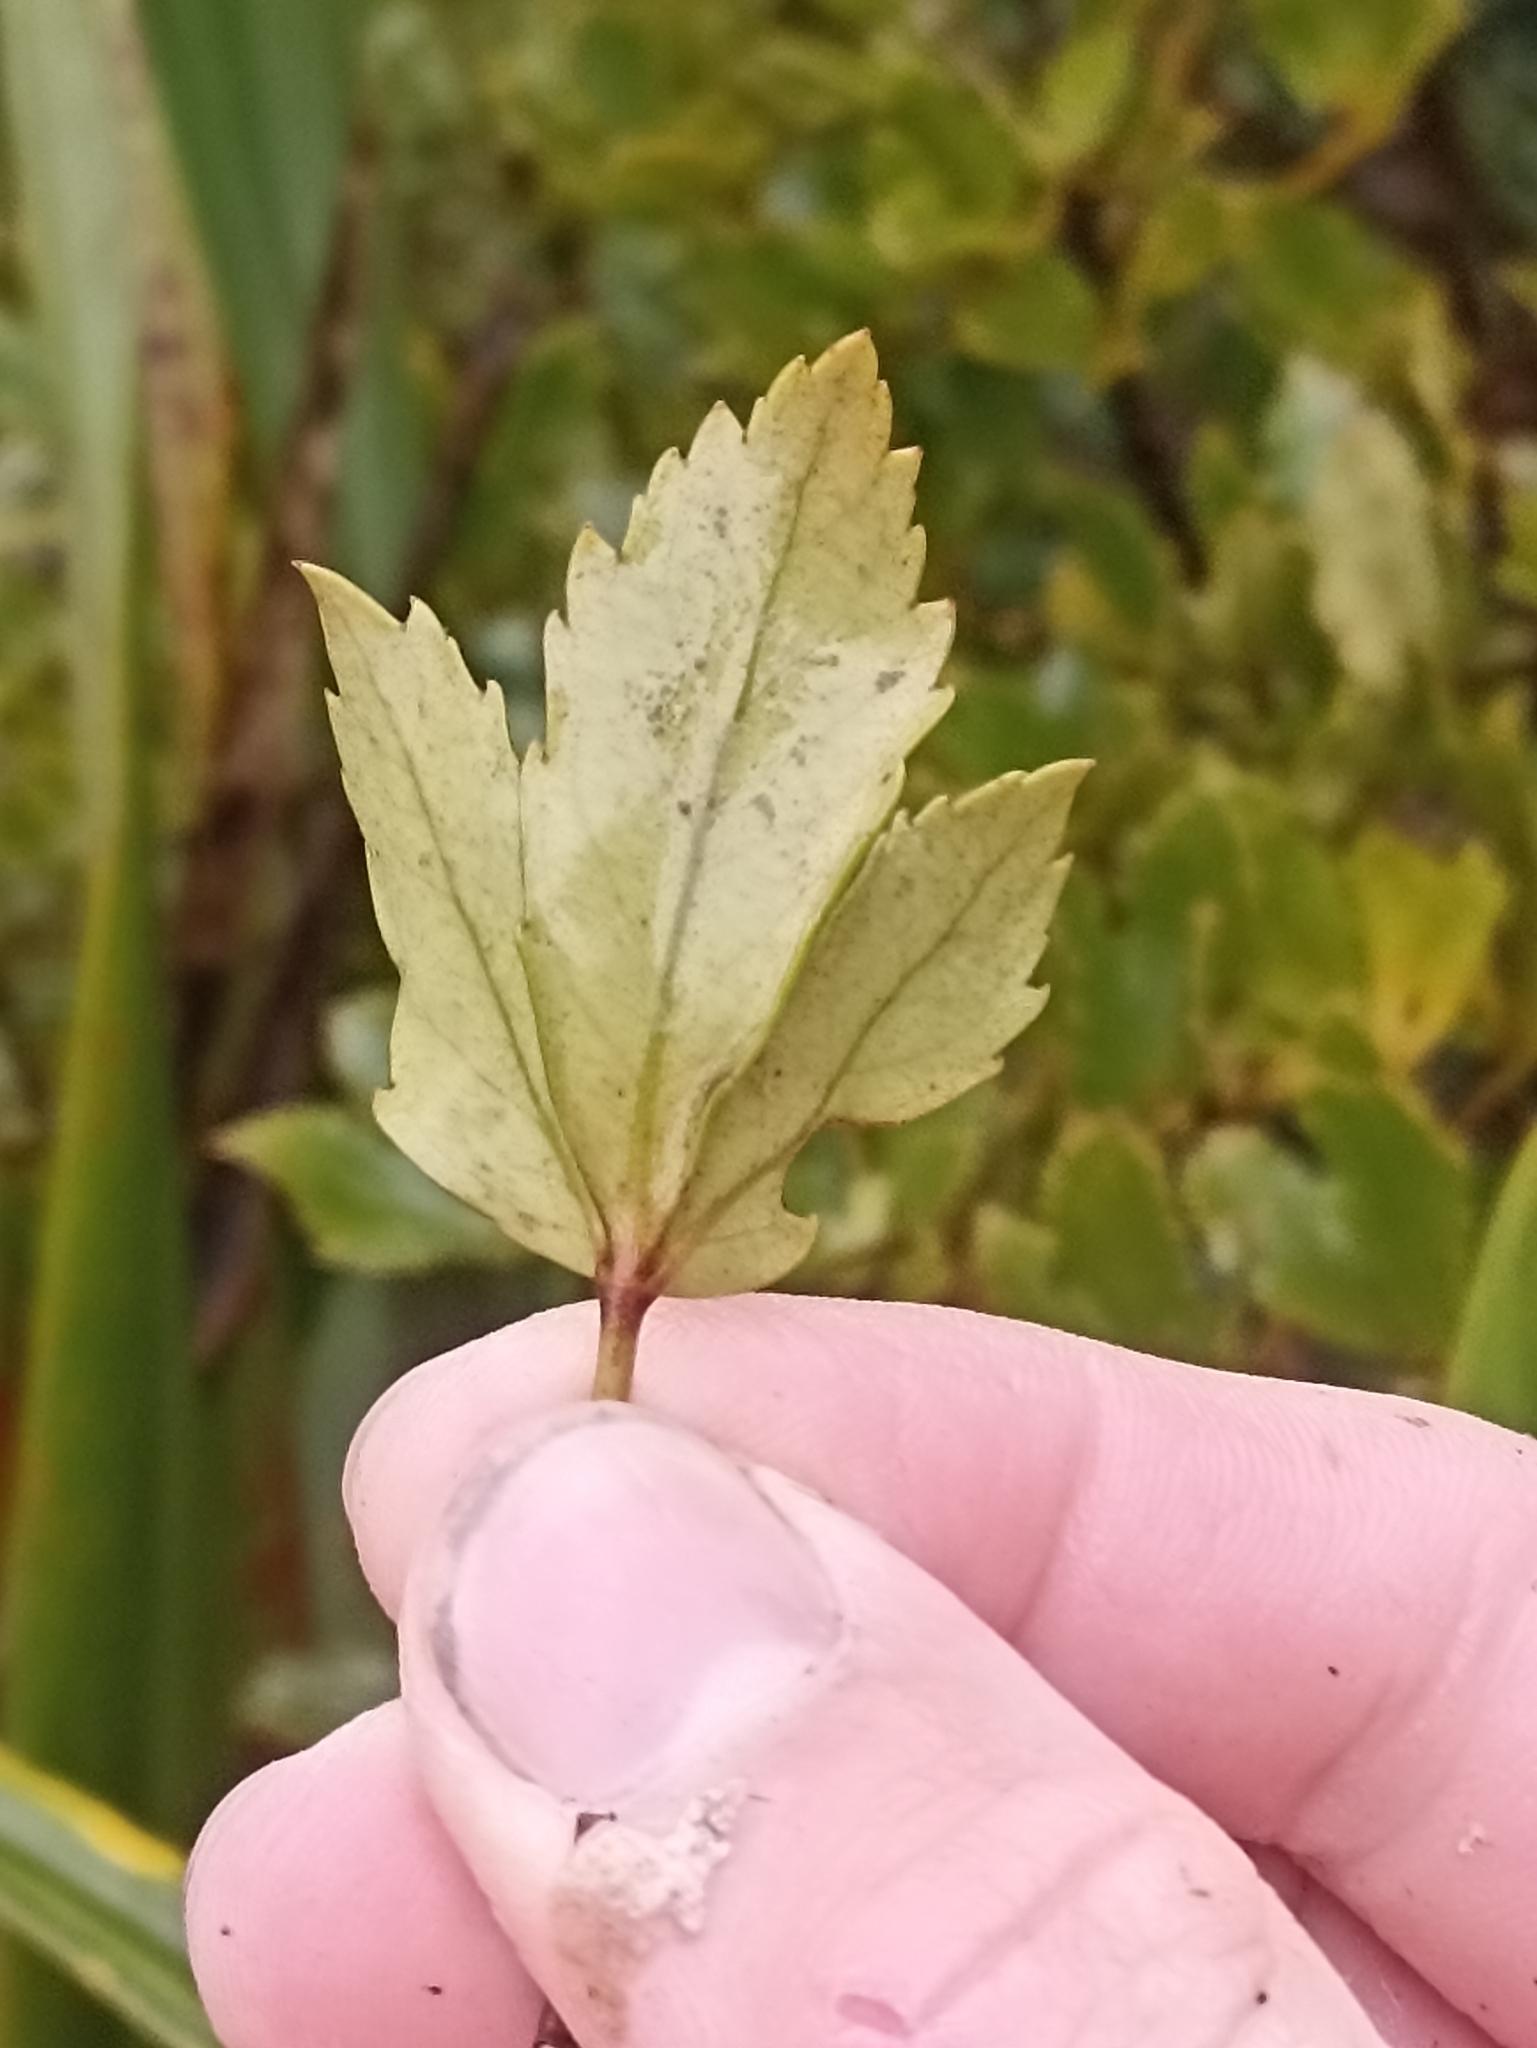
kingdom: Plantae
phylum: Tracheophyta
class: Magnoliopsida
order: Apiales
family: Araliaceae
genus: Pseudopanax
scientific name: Pseudopanax discolor
